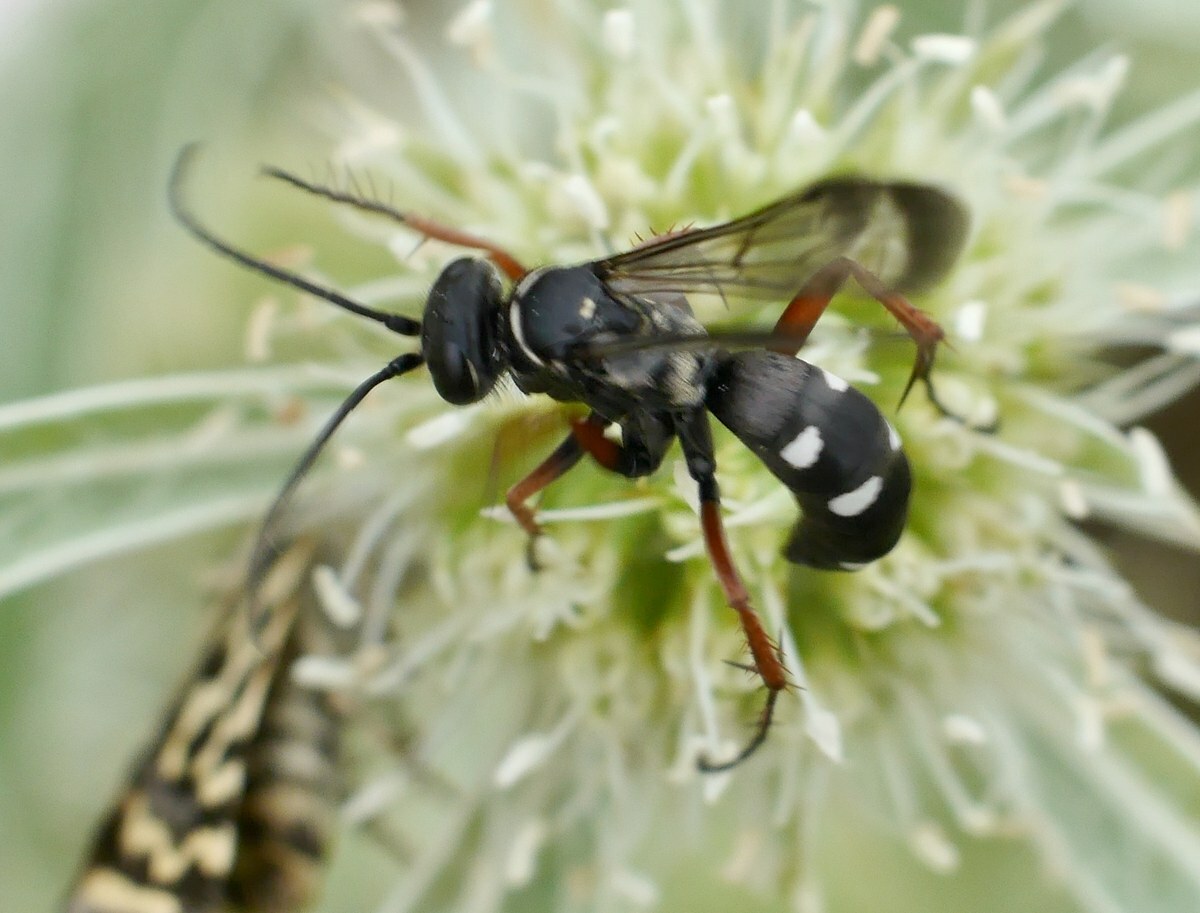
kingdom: Animalia
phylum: Arthropoda
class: Insecta
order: Hymenoptera
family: Pompilidae
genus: Episyron
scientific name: Episyron albonotatum
